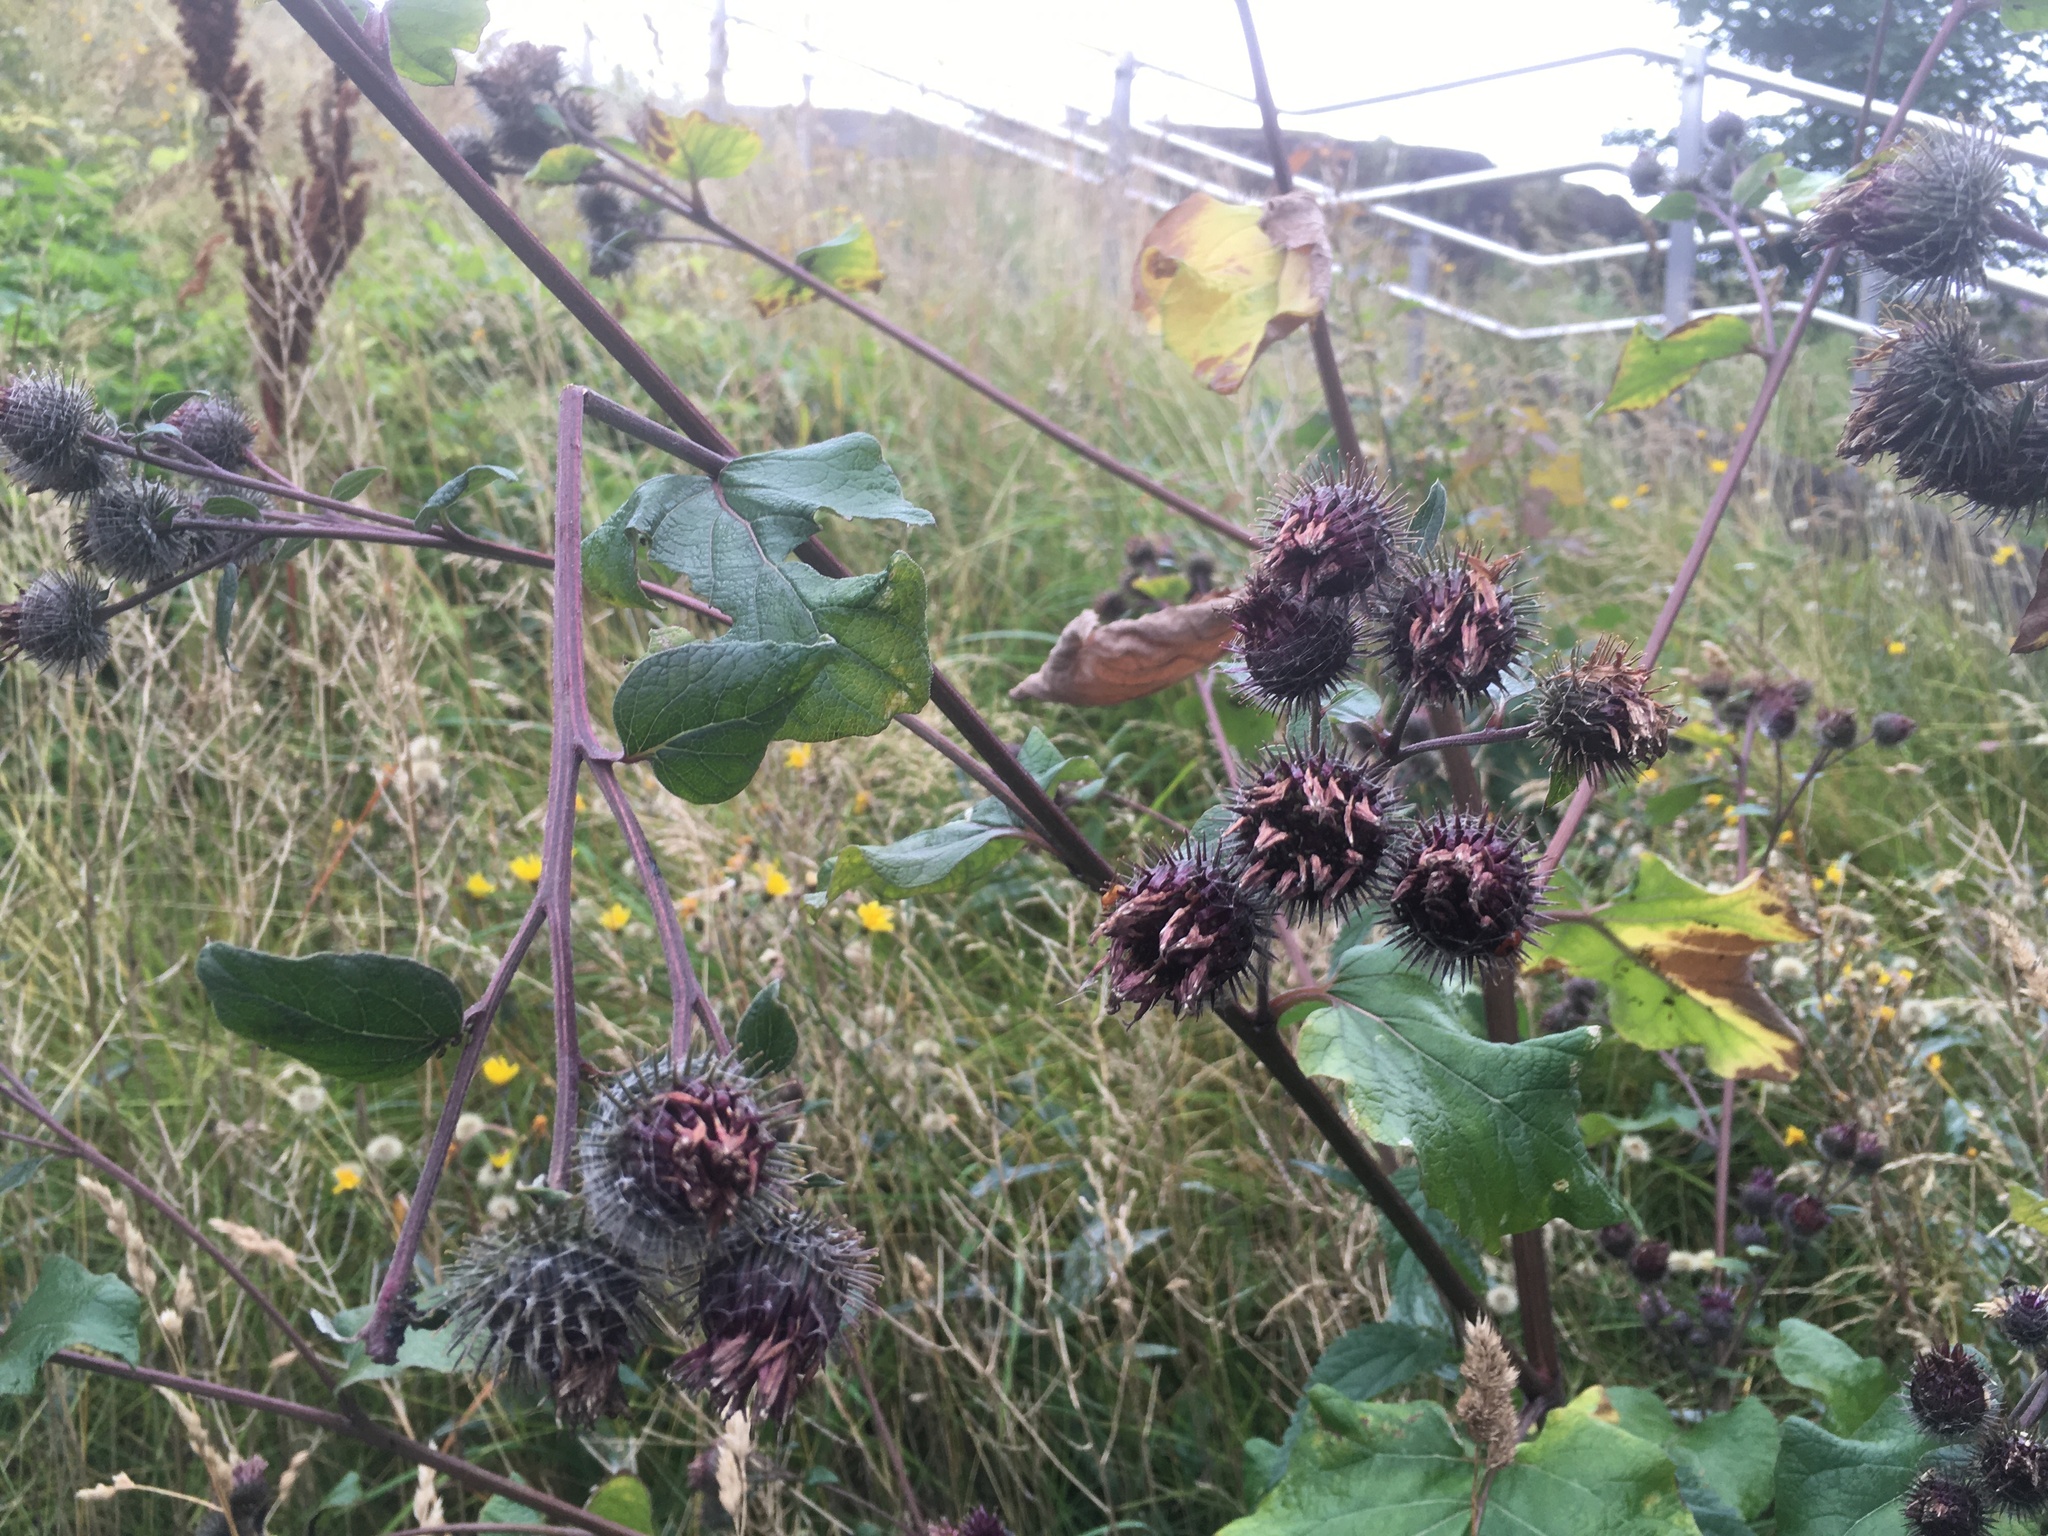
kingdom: Plantae
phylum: Tracheophyta
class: Magnoliopsida
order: Asterales
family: Asteraceae
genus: Arctium
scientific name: Arctium tomentosum
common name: Woolly burdock
